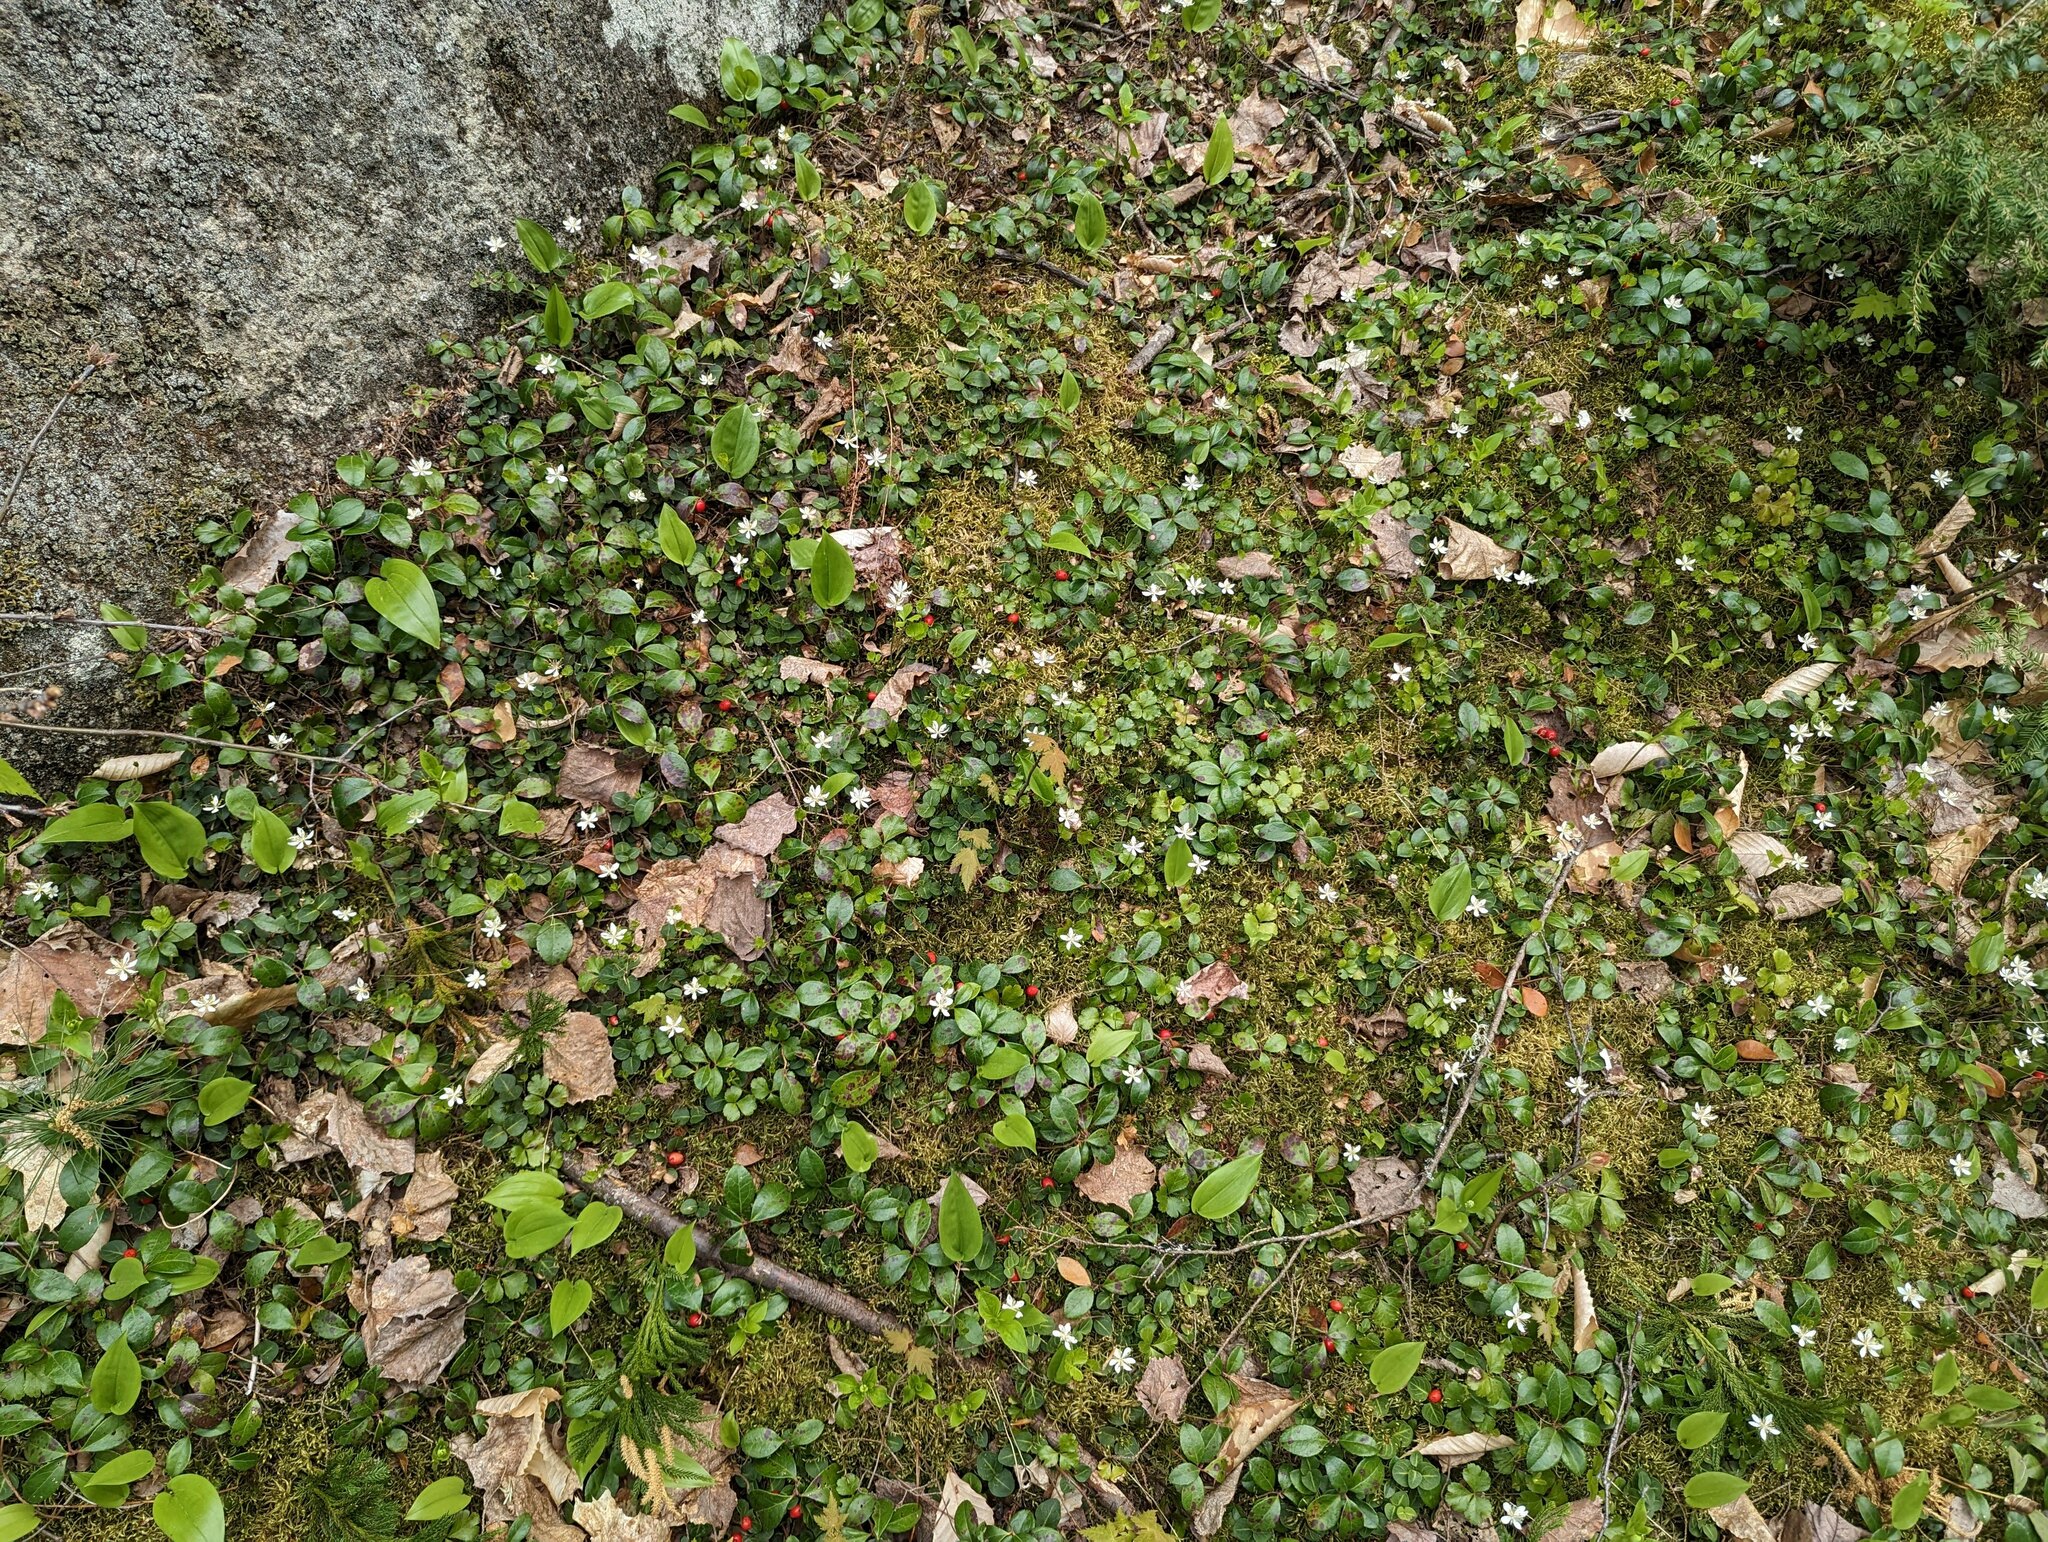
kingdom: Plantae
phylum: Tracheophyta
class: Magnoliopsida
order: Ranunculales
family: Ranunculaceae
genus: Coptis
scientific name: Coptis trifolia
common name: Canker-root
